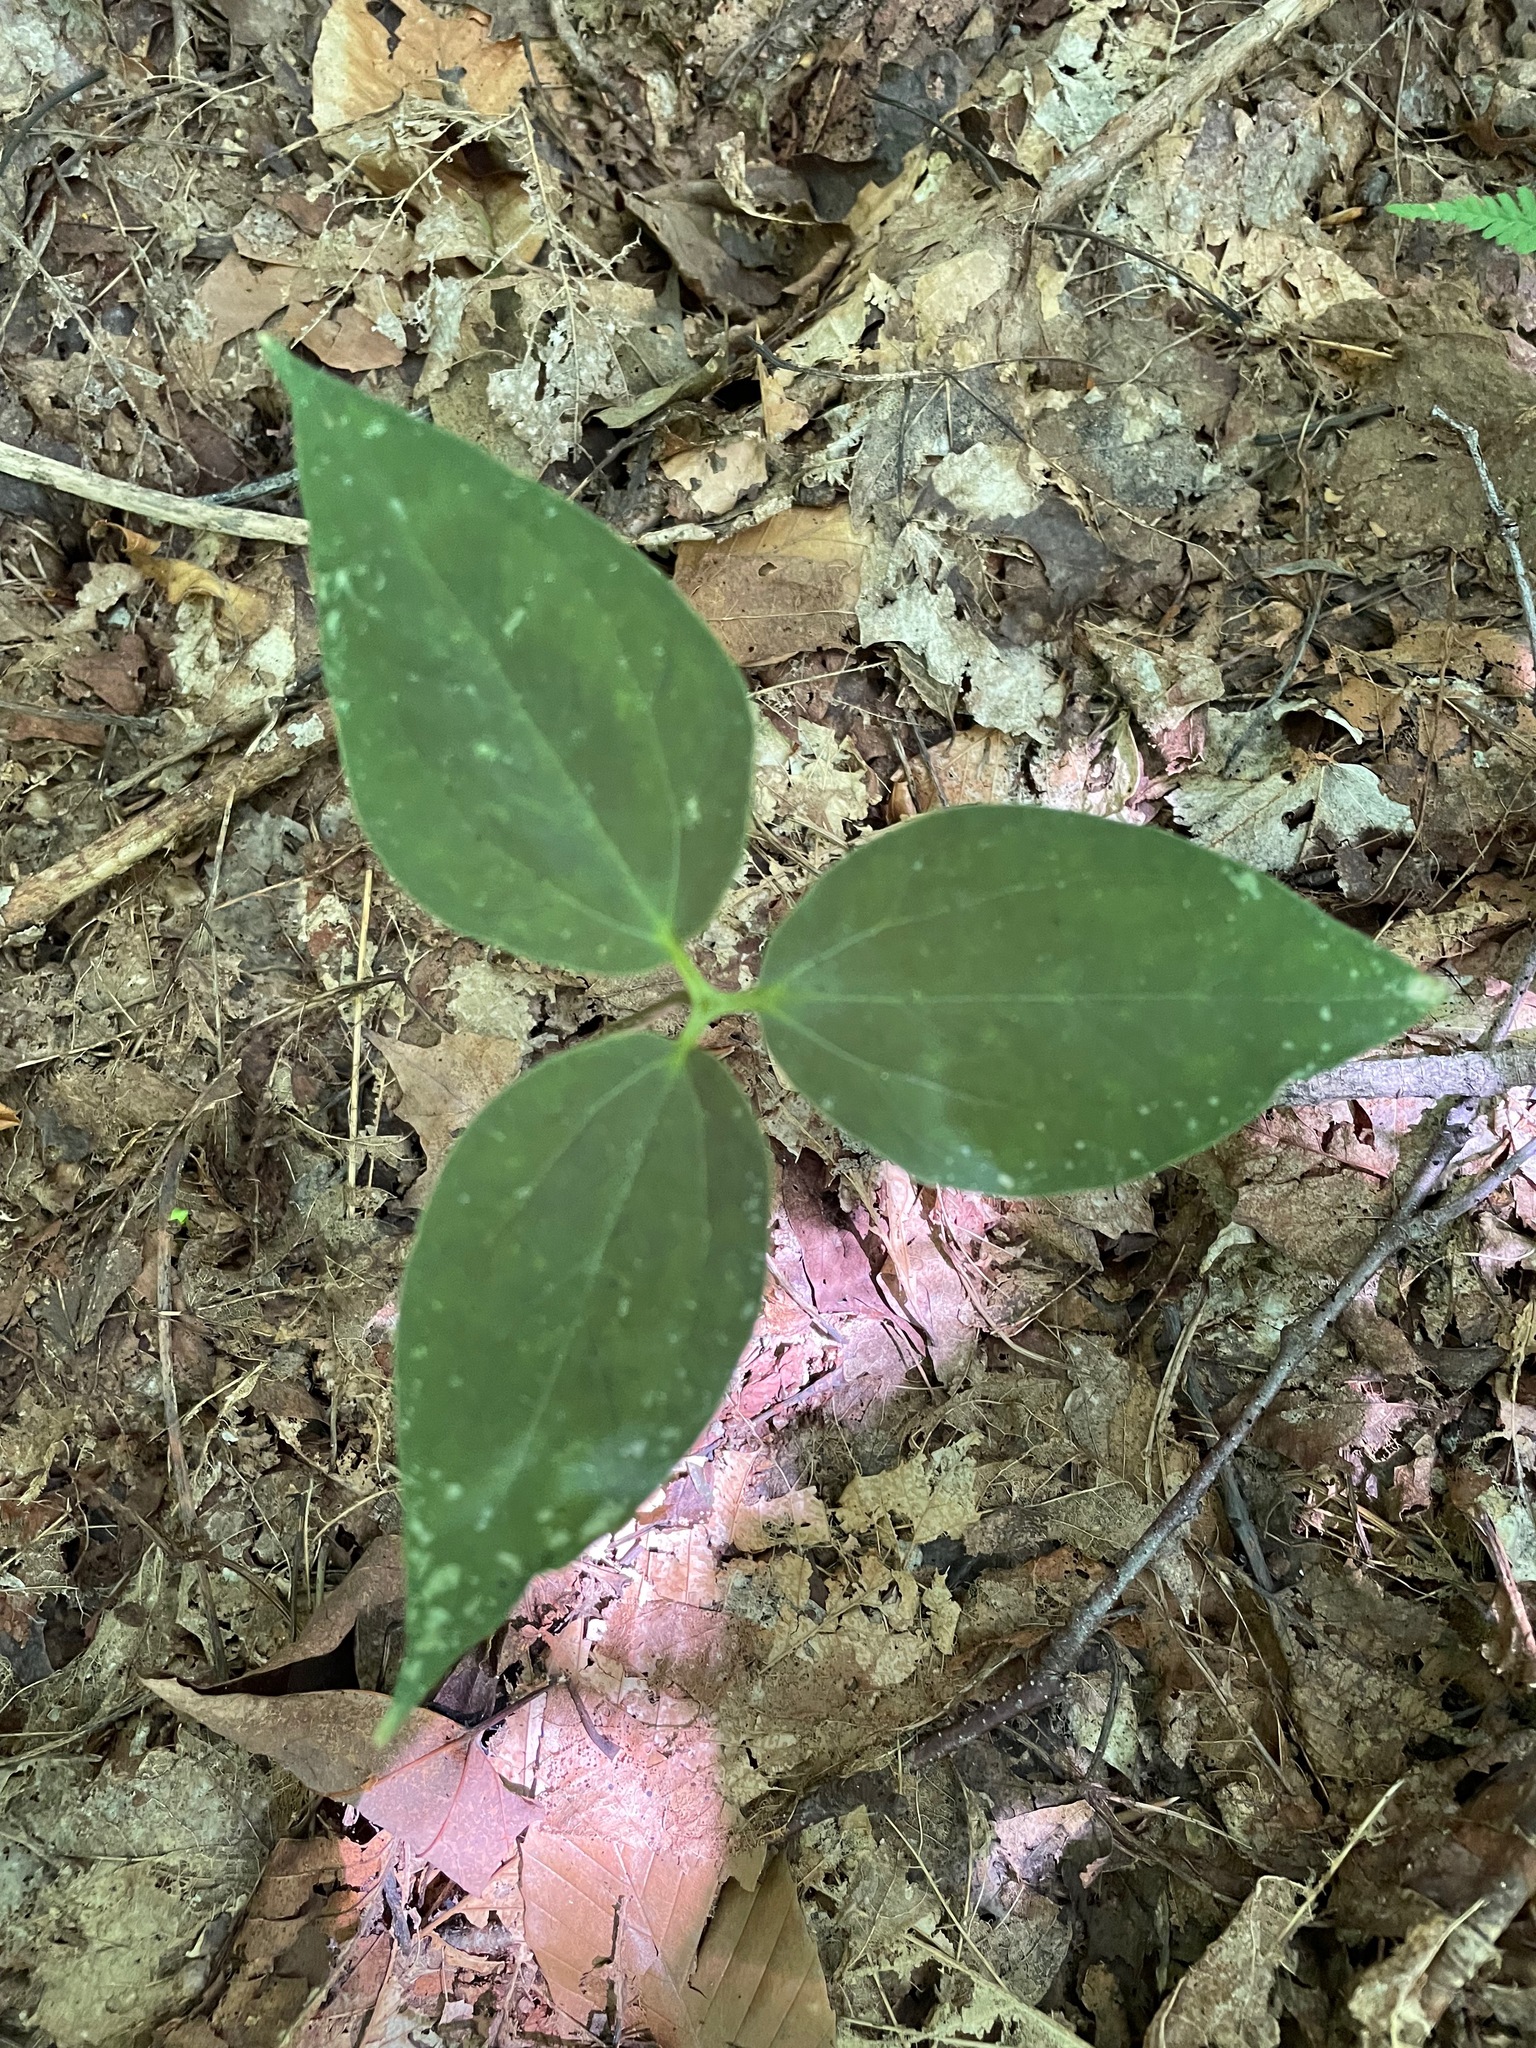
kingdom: Plantae
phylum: Tracheophyta
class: Liliopsida
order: Liliales
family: Melanthiaceae
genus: Trillium
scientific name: Trillium undulatum
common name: Paint trillium
